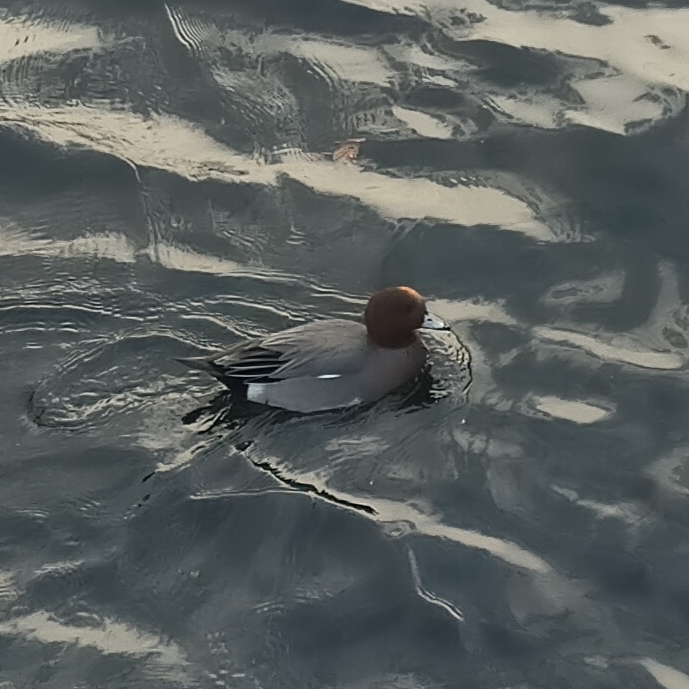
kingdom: Animalia
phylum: Chordata
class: Aves
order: Anseriformes
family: Anatidae
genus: Mareca
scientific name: Mareca penelope
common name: Eurasian wigeon
